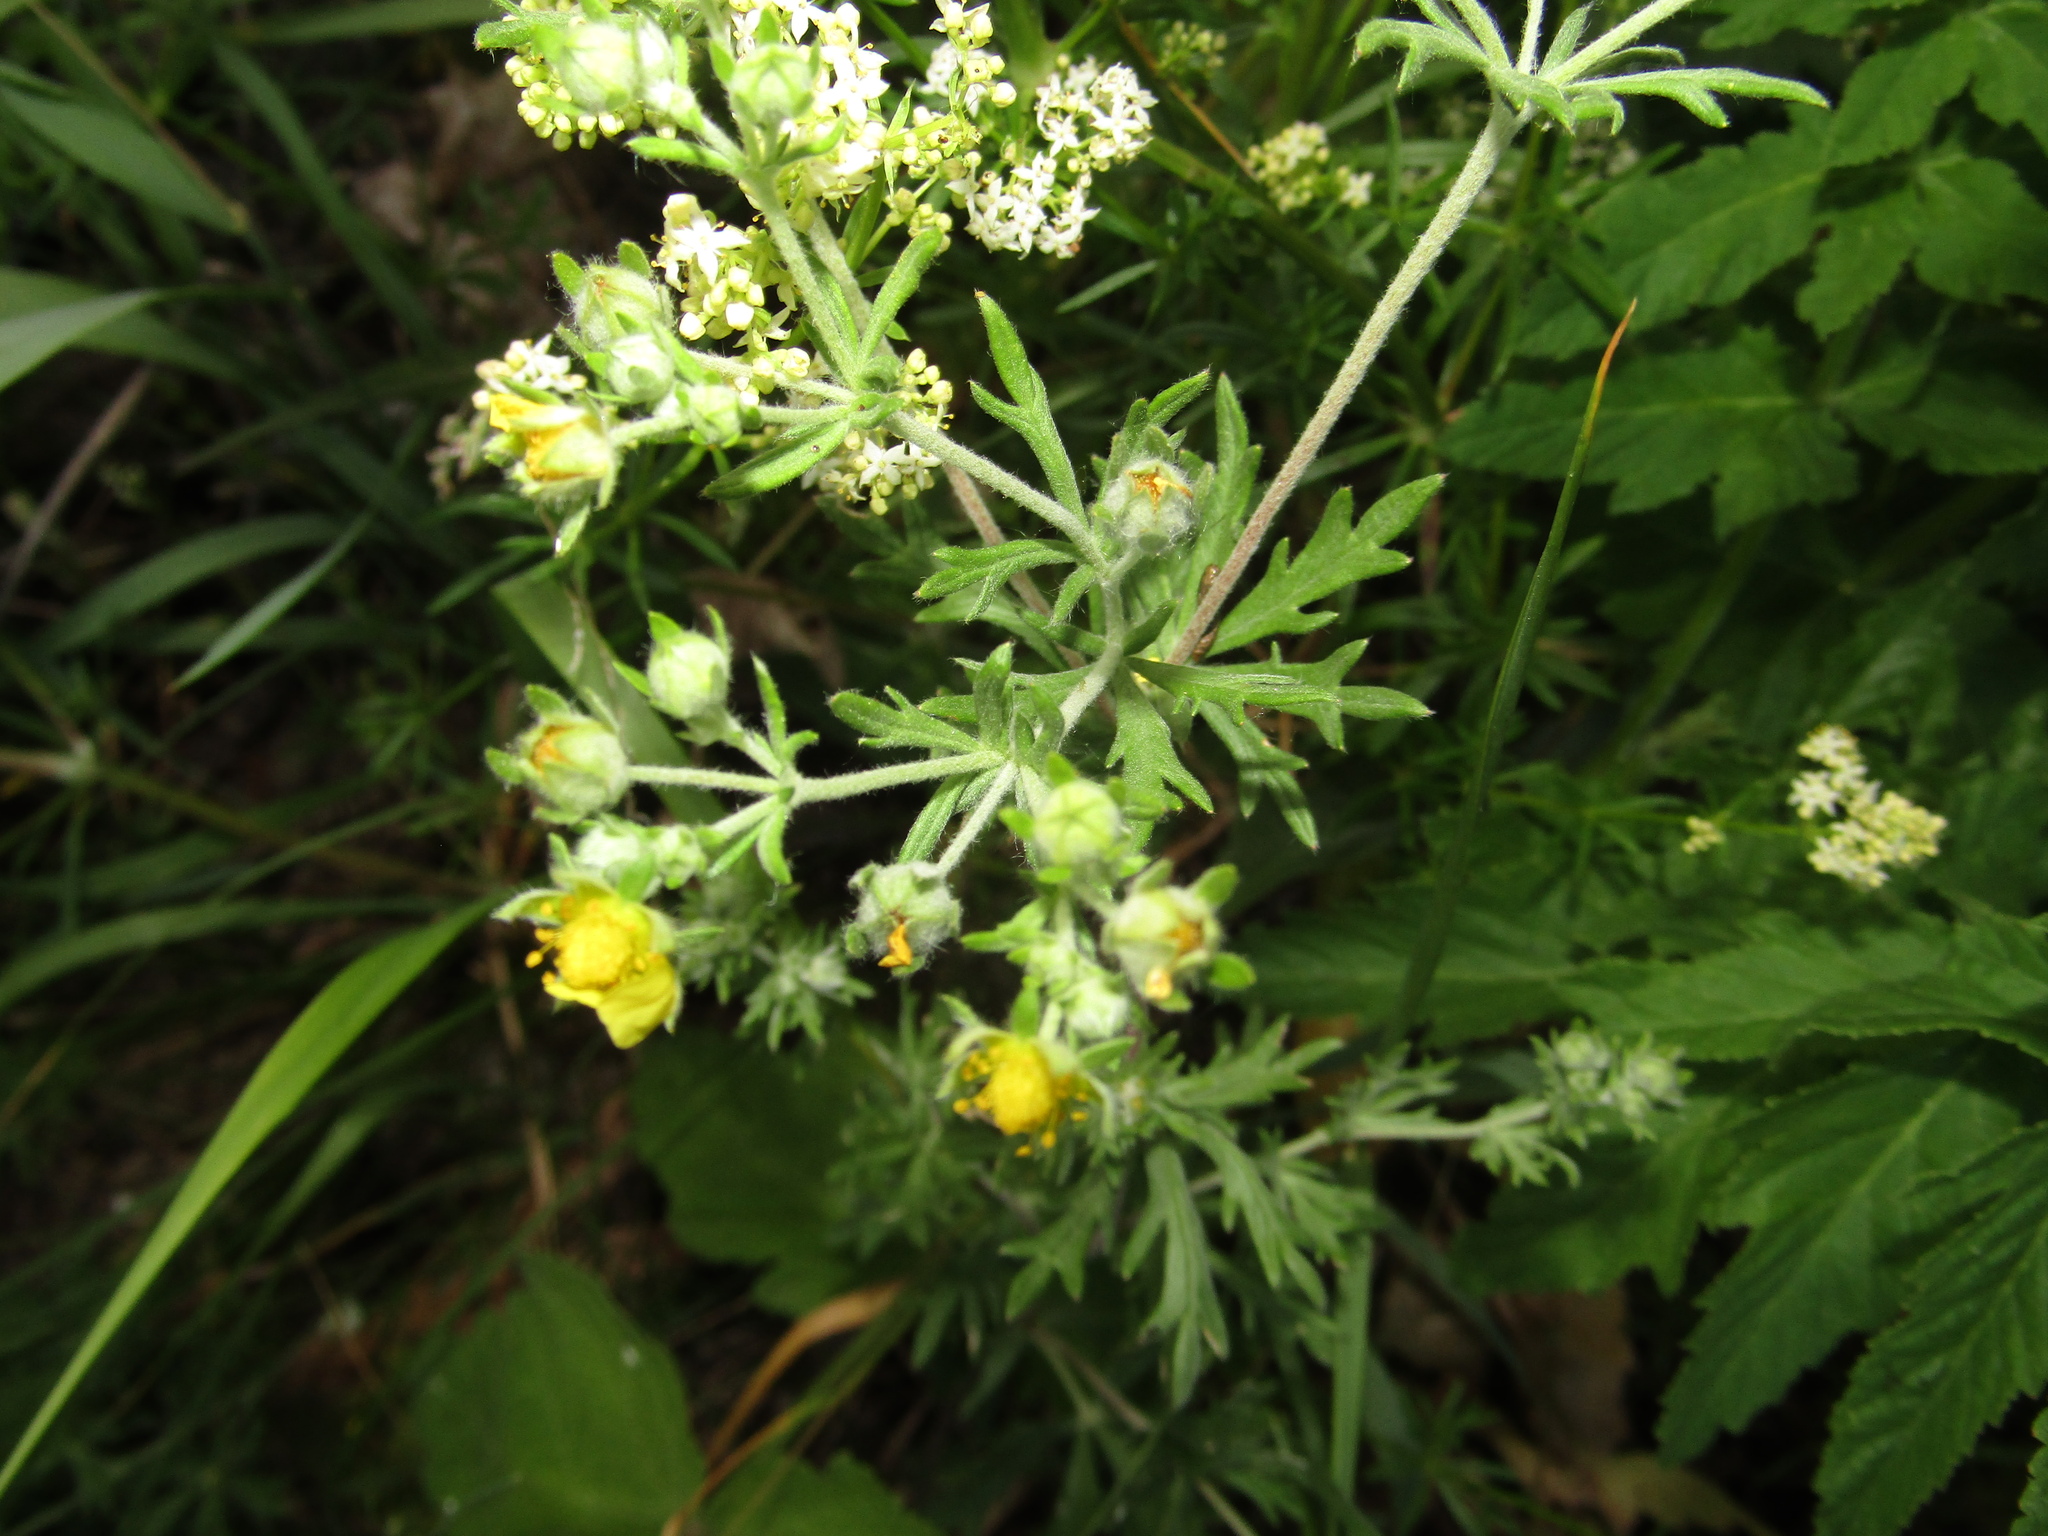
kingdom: Plantae
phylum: Tracheophyta
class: Magnoliopsida
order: Rosales
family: Rosaceae
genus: Potentilla
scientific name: Potentilla argentea
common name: Hoary cinquefoil
